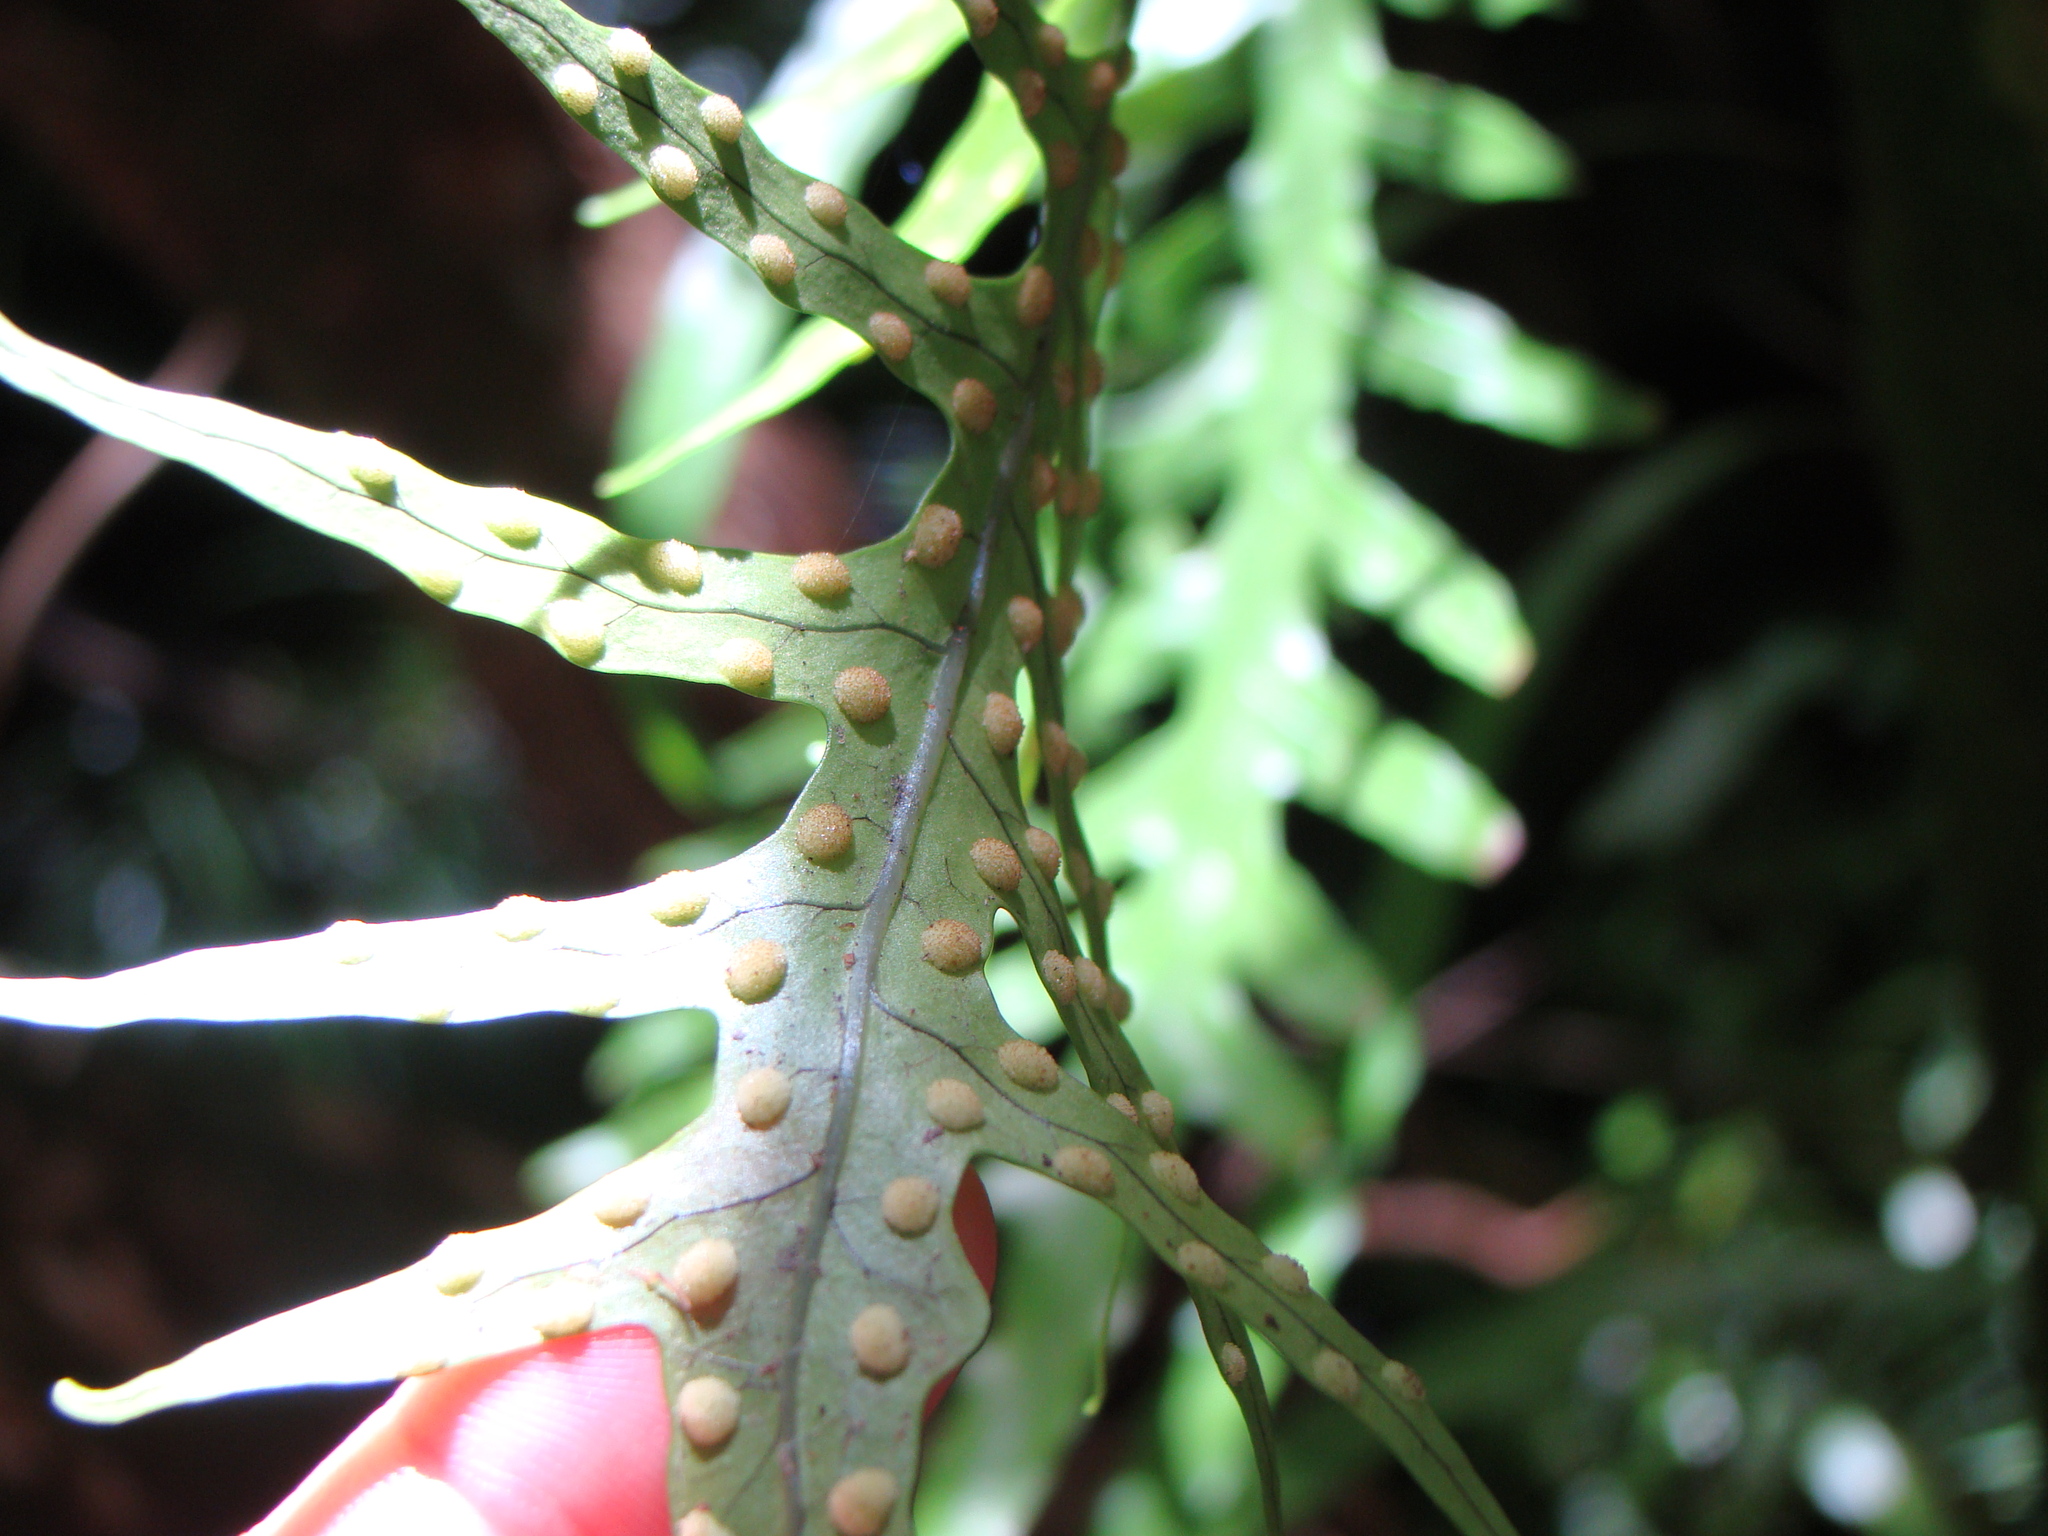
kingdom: Plantae
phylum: Tracheophyta
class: Polypodiopsida
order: Polypodiales
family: Polypodiaceae
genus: Lecanopteris
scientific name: Lecanopteris scandens
